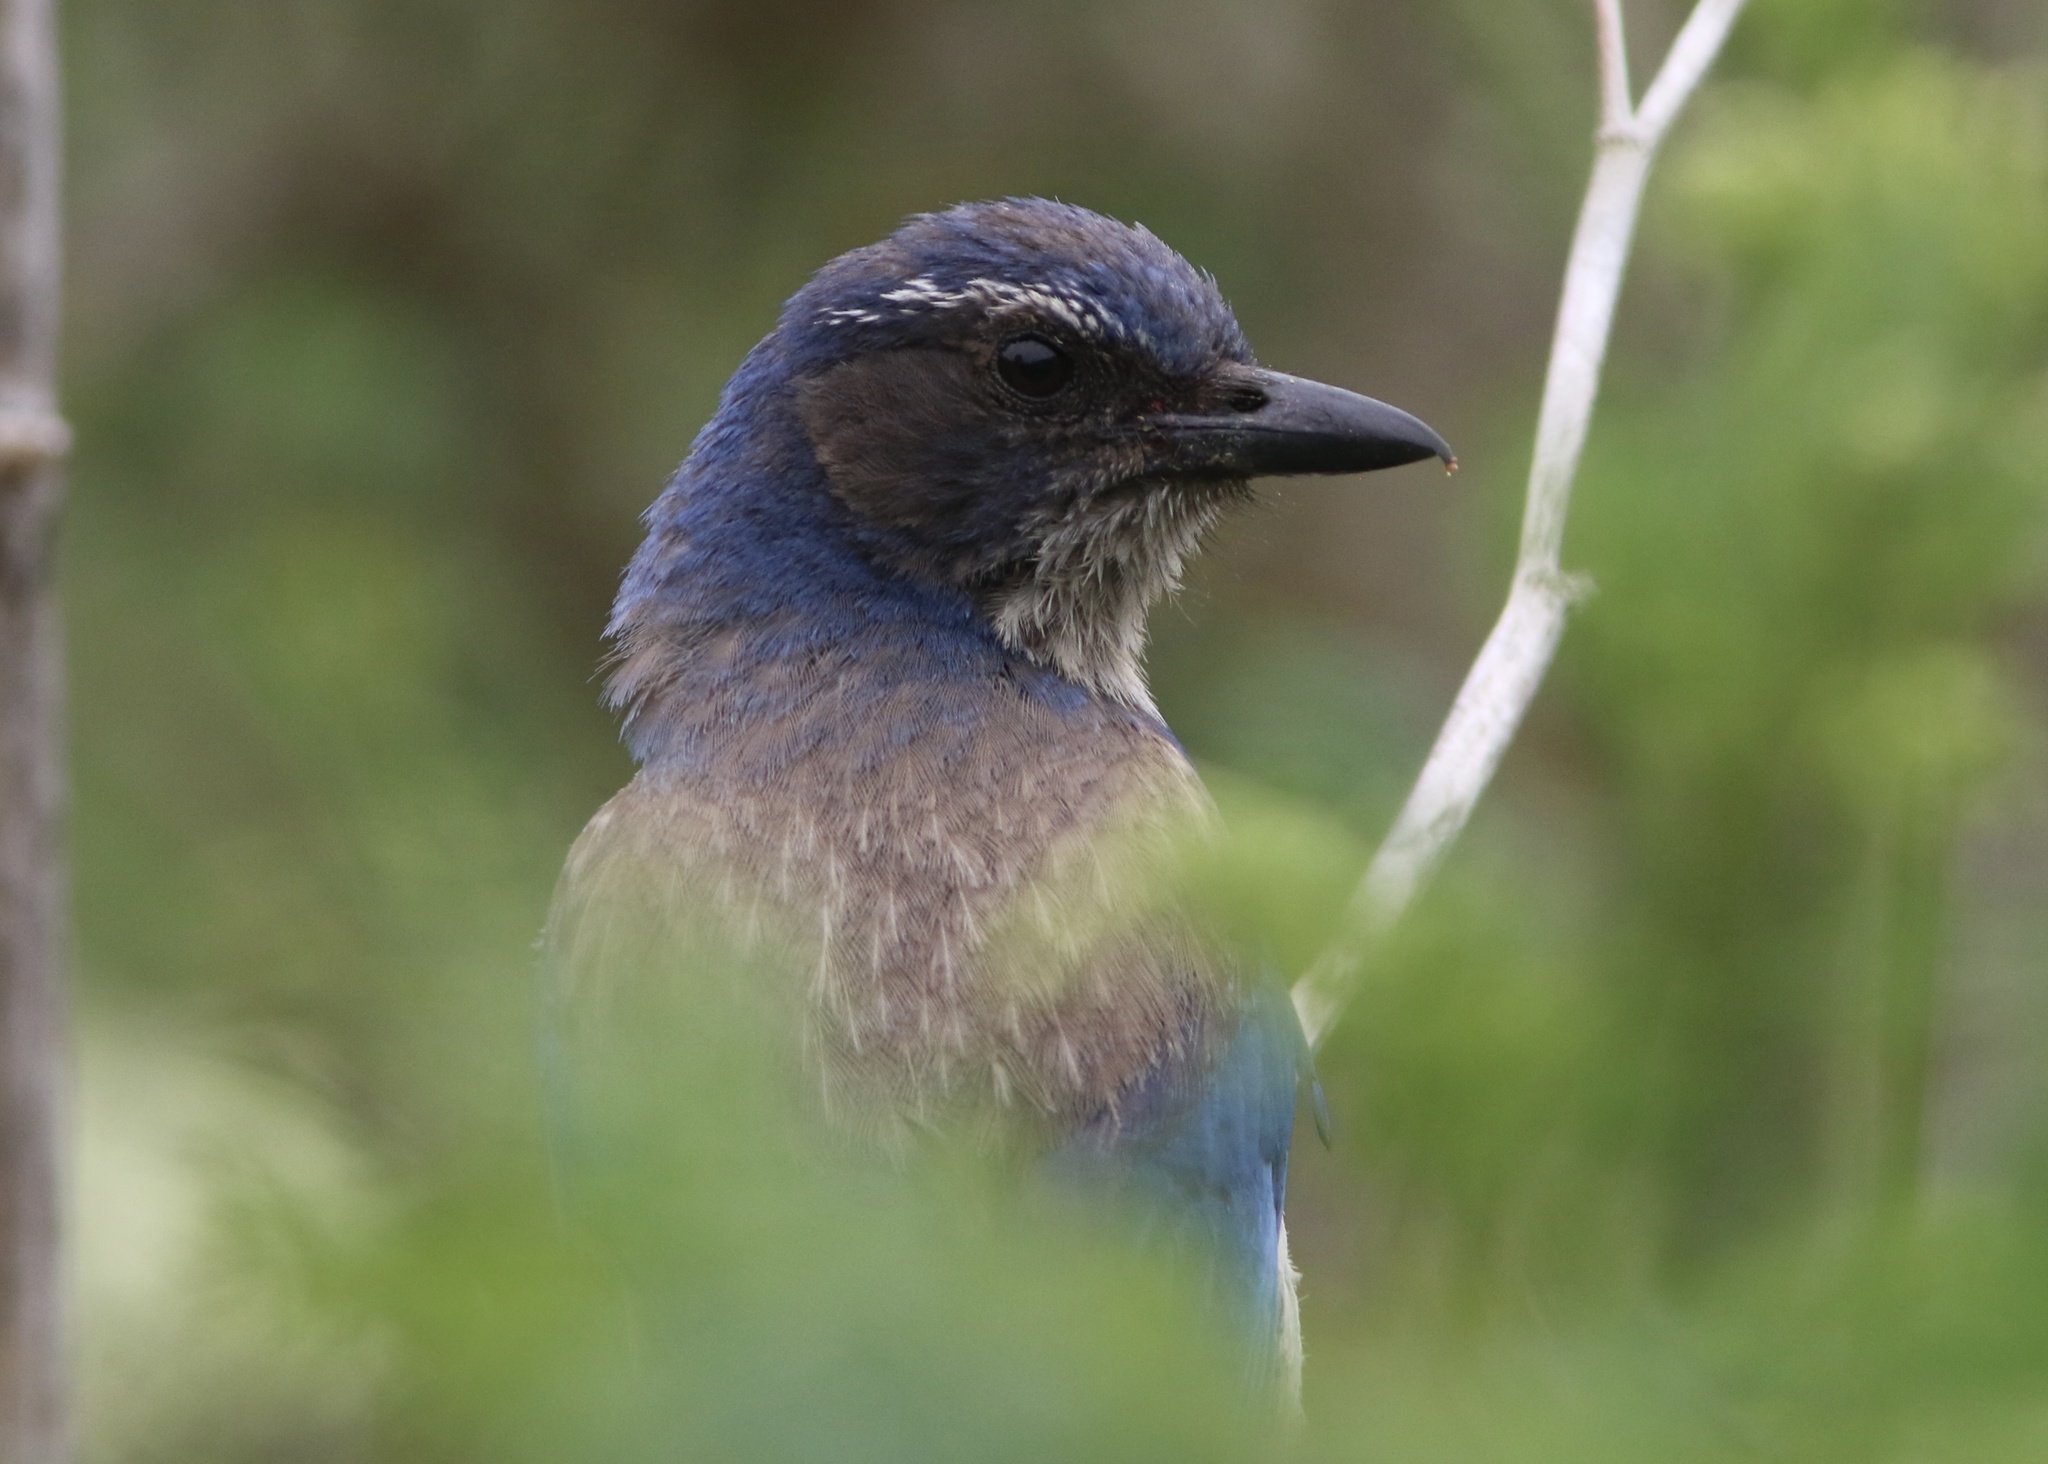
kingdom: Animalia
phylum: Chordata
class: Aves
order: Passeriformes
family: Corvidae
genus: Aphelocoma
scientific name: Aphelocoma californica
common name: California scrub-jay
